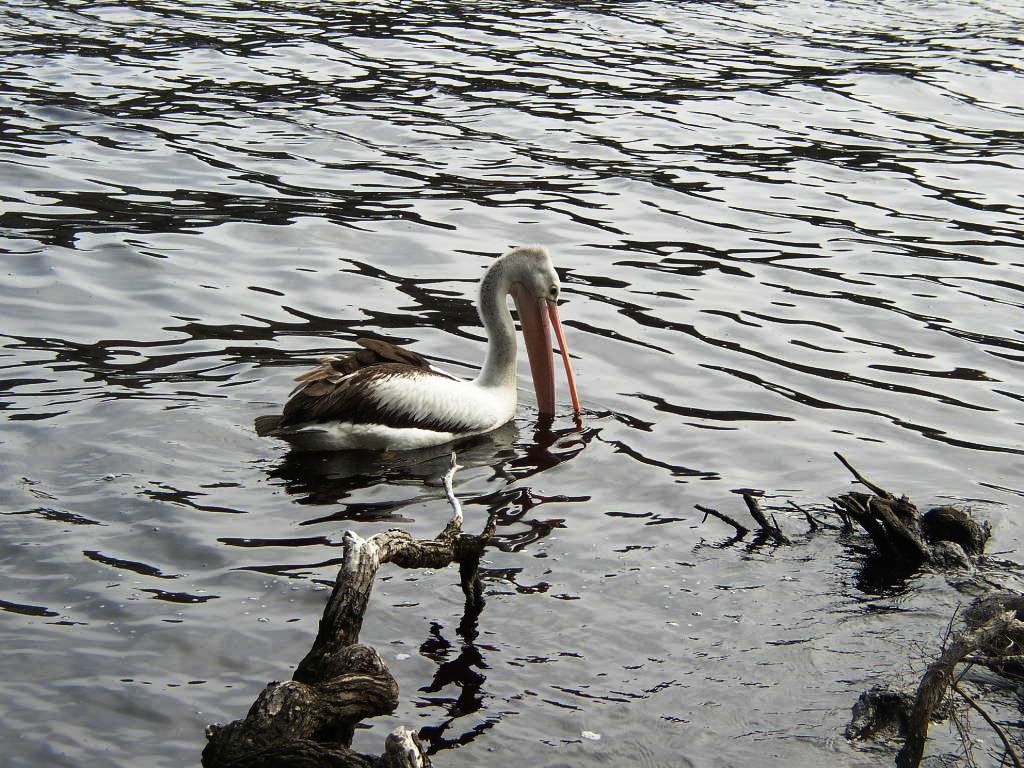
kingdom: Animalia
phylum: Chordata
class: Aves
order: Pelecaniformes
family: Pelecanidae
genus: Pelecanus
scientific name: Pelecanus conspicillatus
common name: Australian pelican
